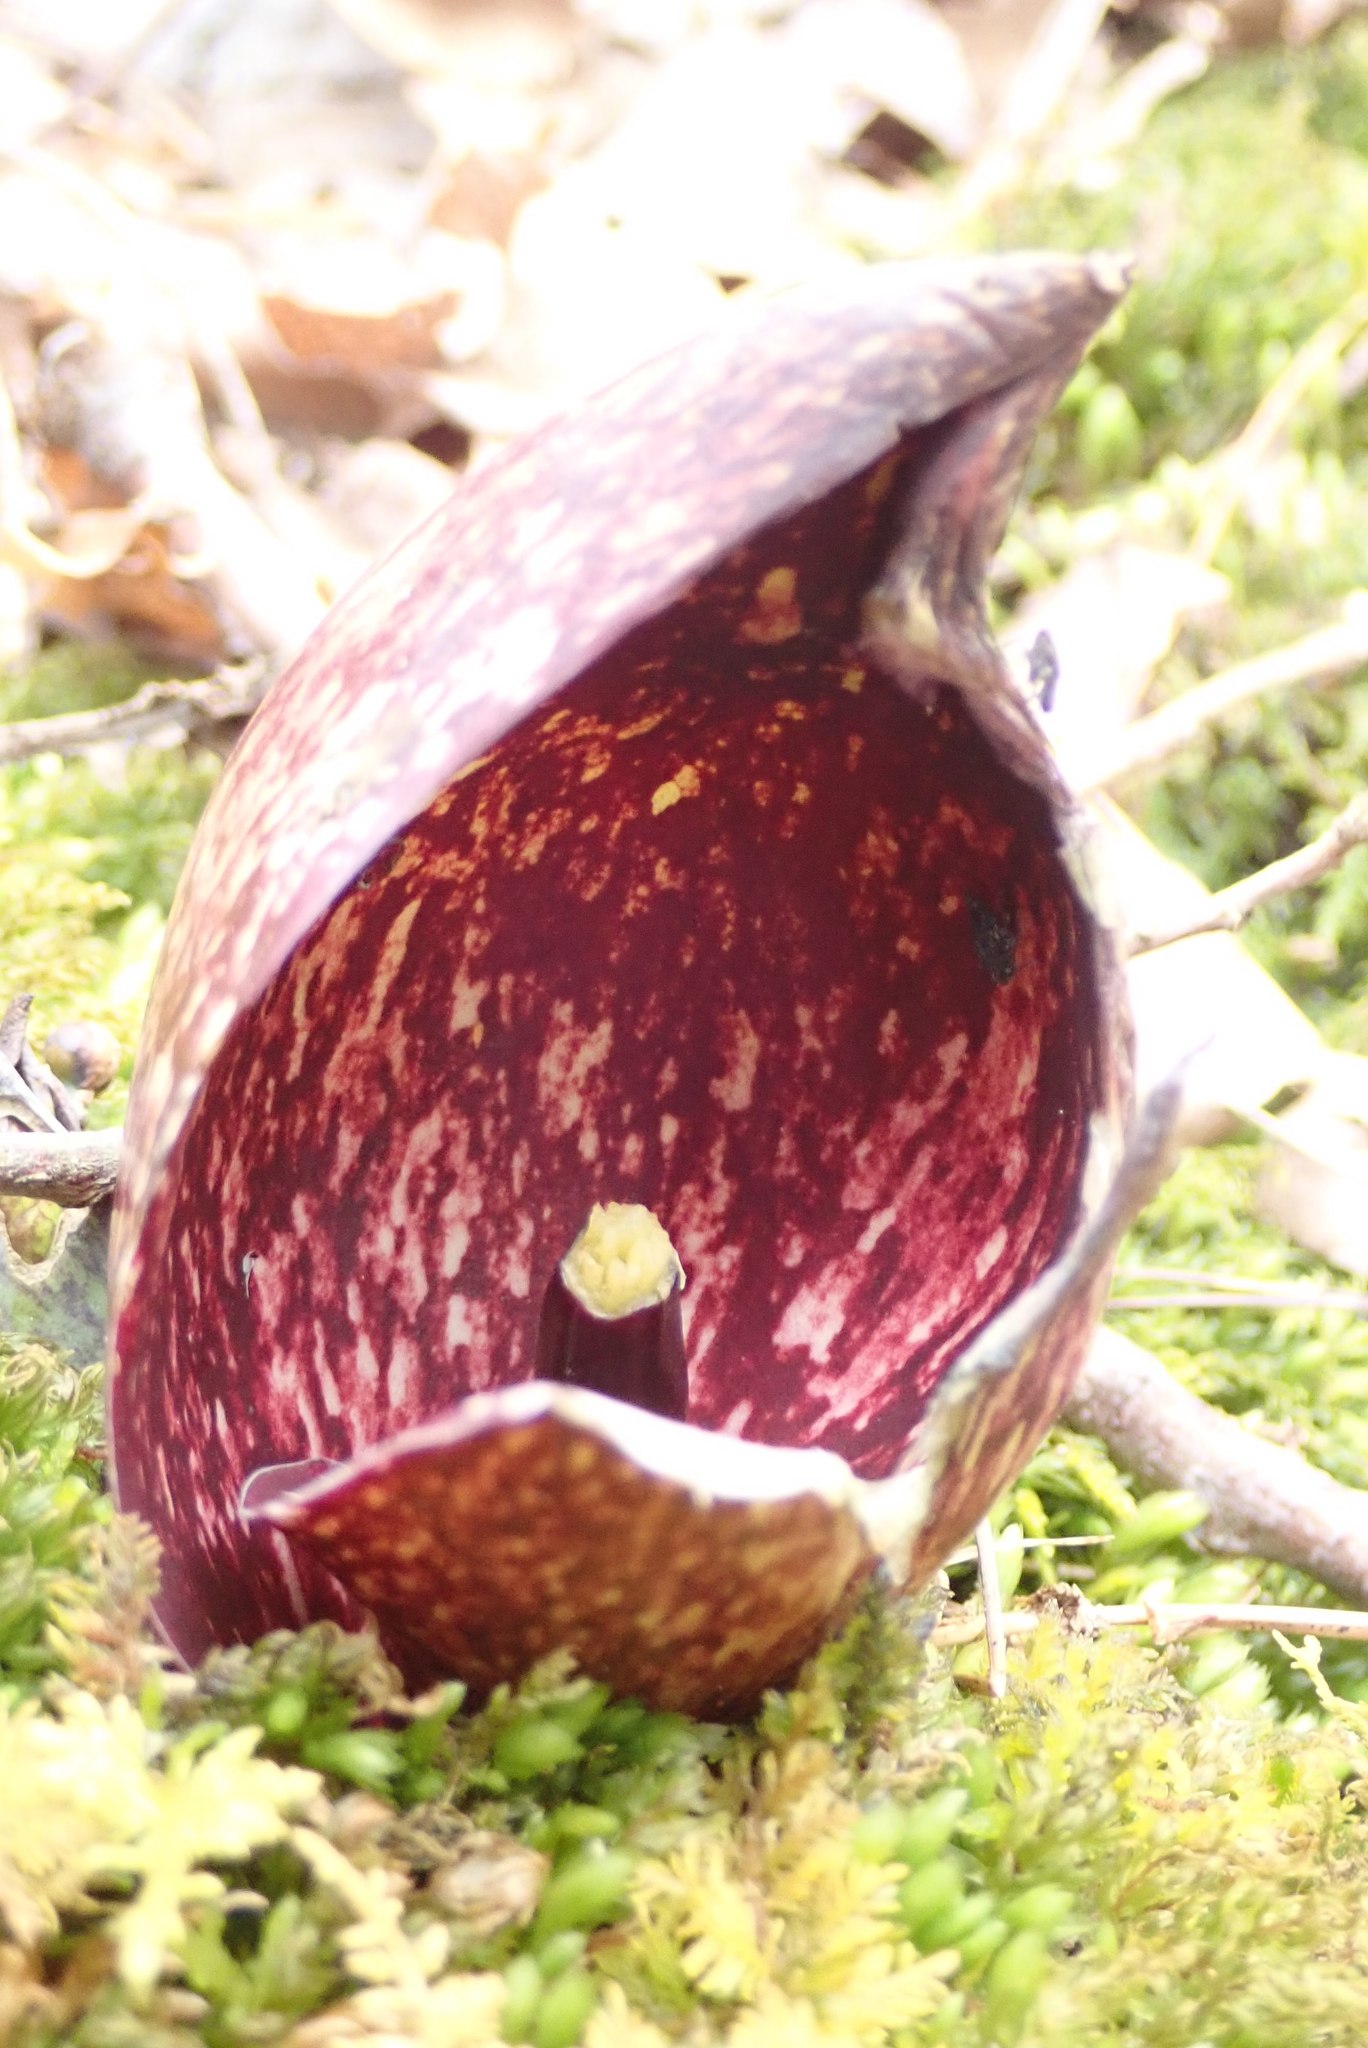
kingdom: Plantae
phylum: Tracheophyta
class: Liliopsida
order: Alismatales
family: Araceae
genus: Symplocarpus
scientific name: Symplocarpus foetidus
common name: Eastern skunk cabbage
